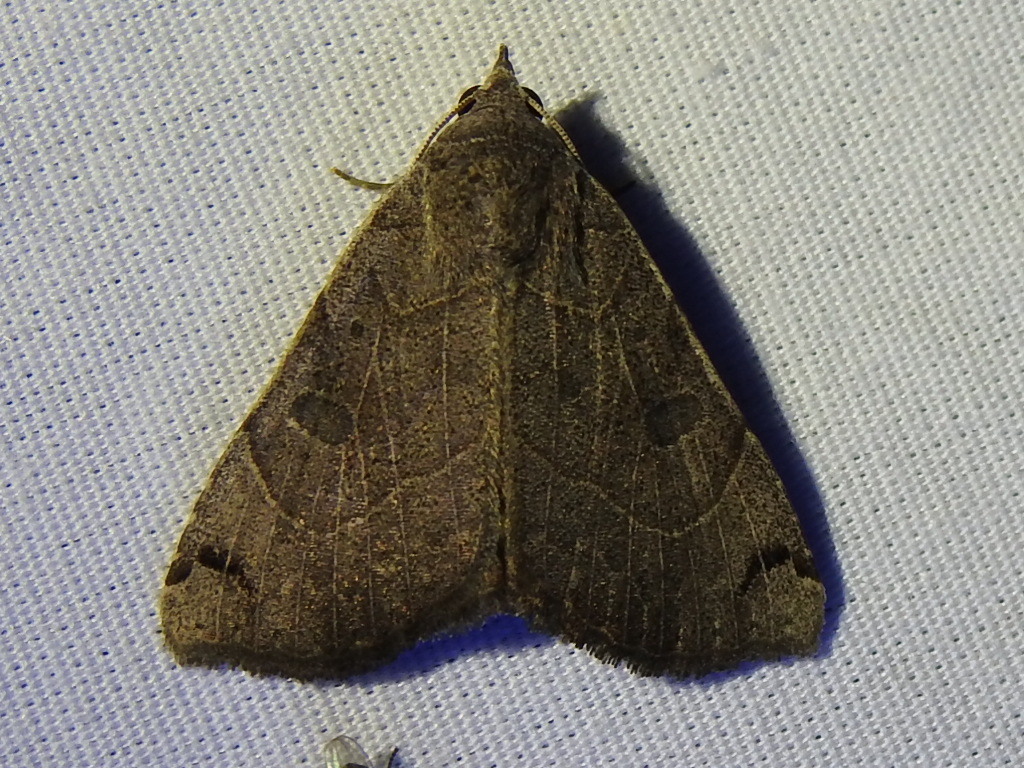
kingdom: Animalia
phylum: Arthropoda
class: Insecta
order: Lepidoptera
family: Erebidae
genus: Isogona
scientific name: Isogona scindens
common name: Owlet moth
